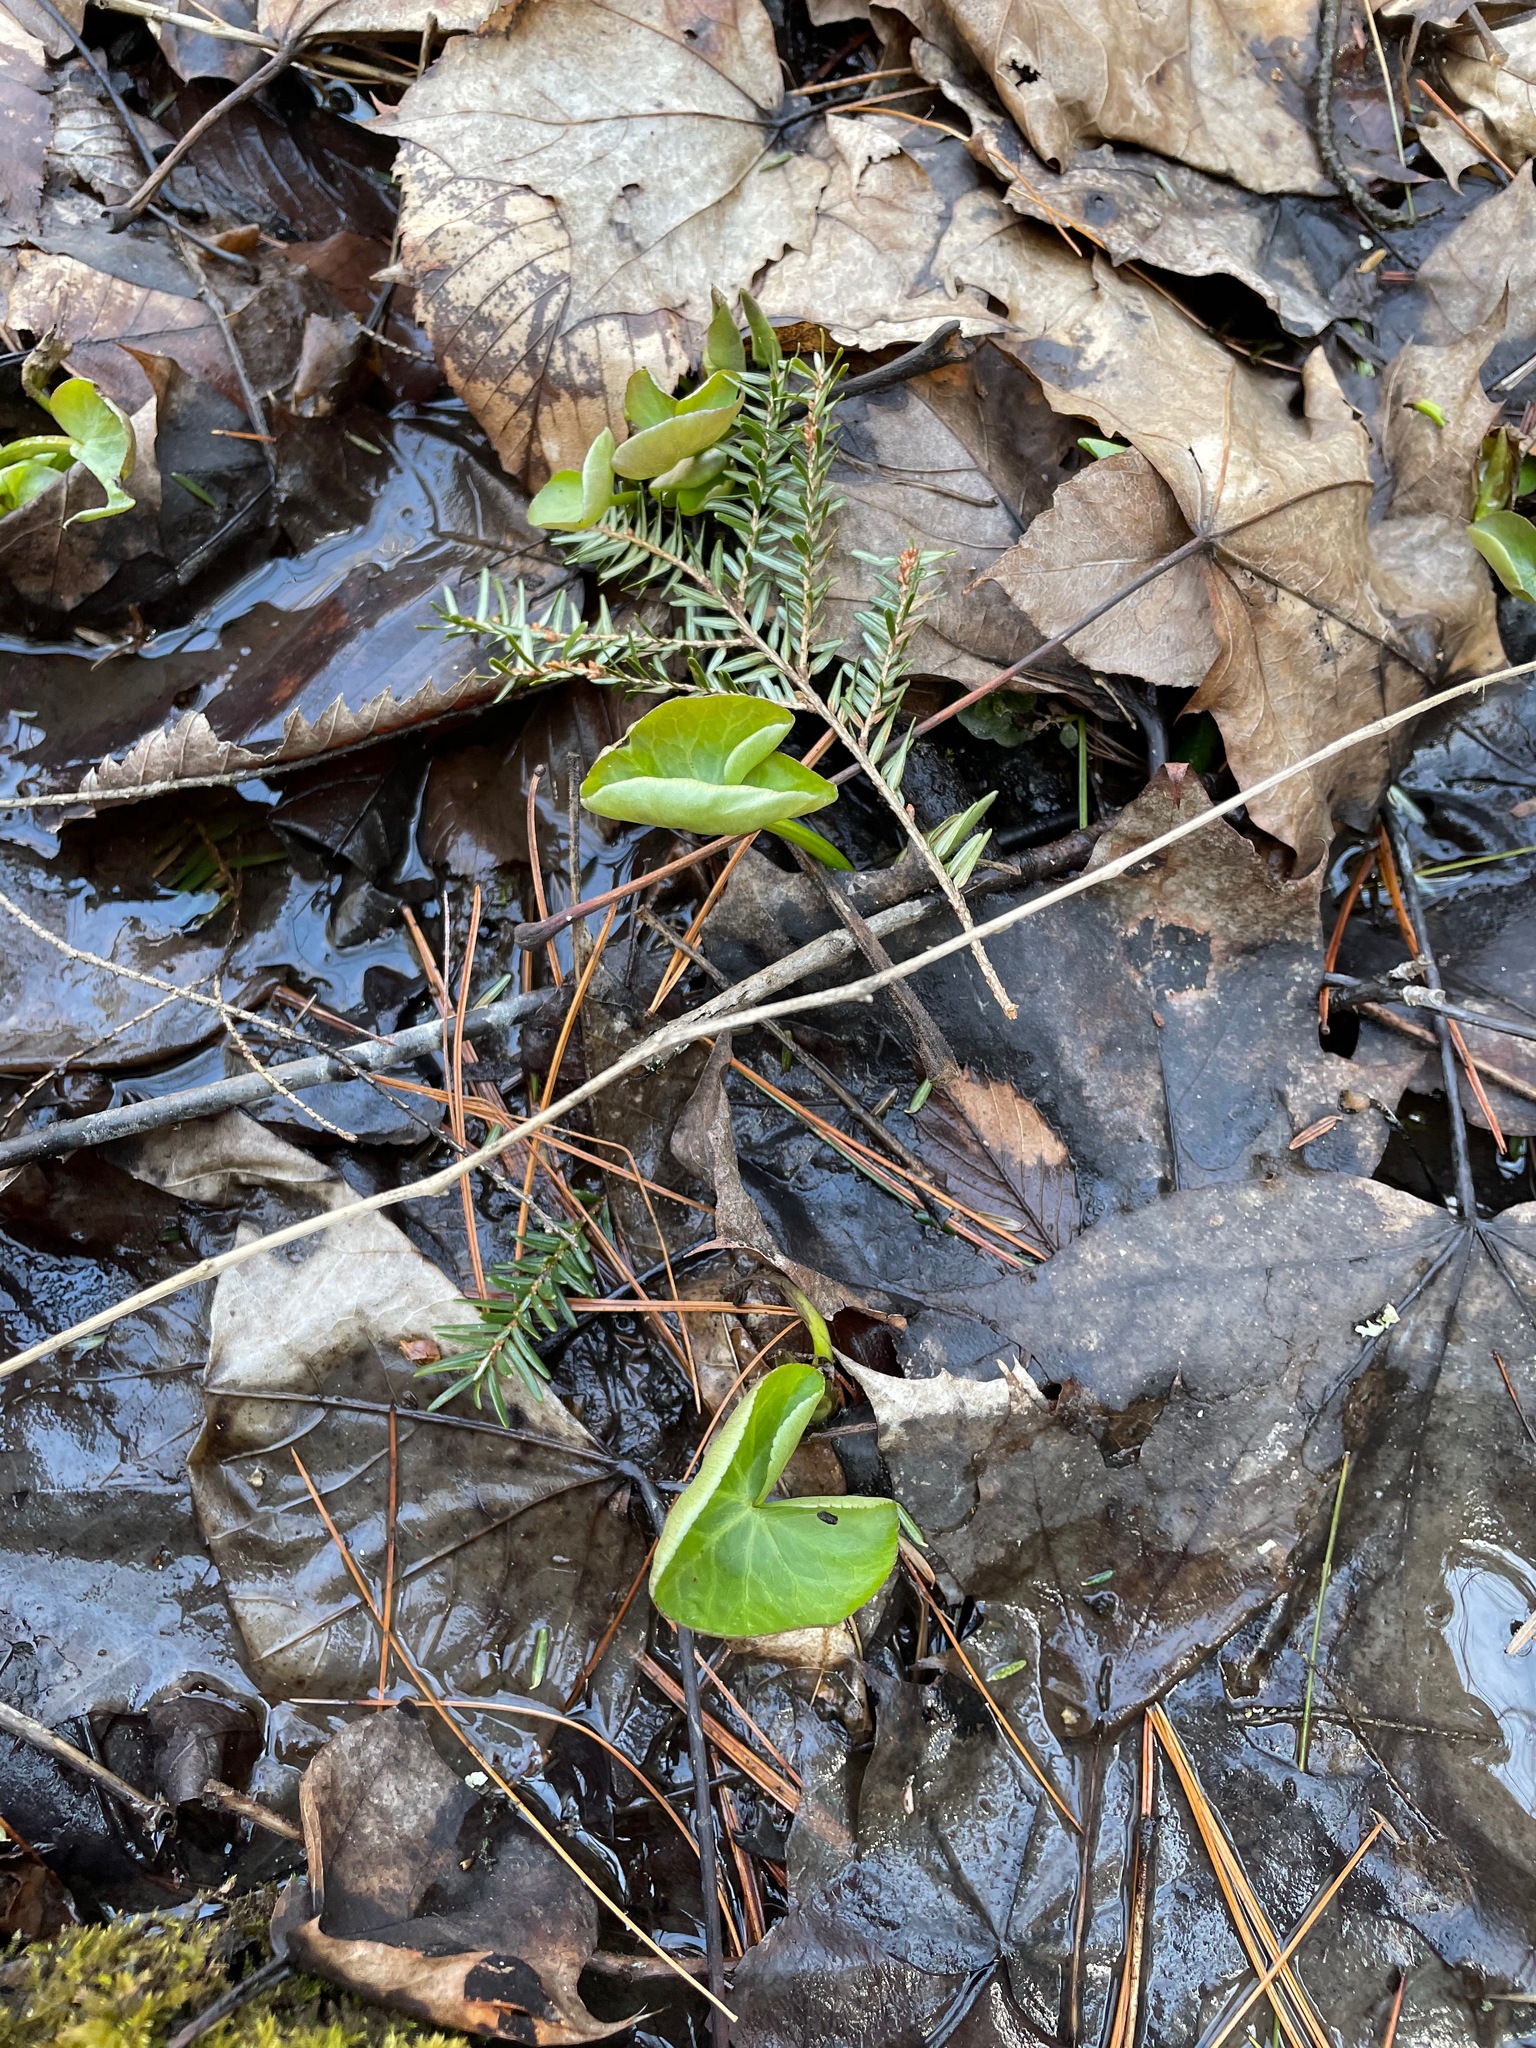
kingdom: Plantae
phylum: Tracheophyta
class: Magnoliopsida
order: Ranunculales
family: Ranunculaceae
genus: Caltha
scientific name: Caltha palustris
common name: Marsh marigold
